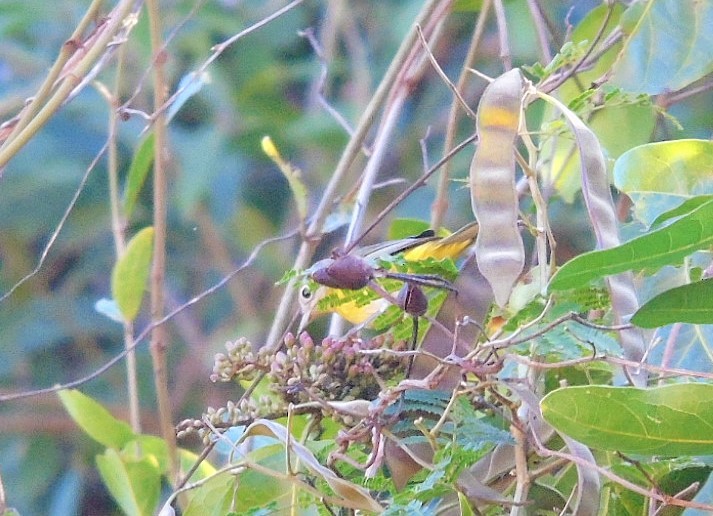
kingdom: Animalia
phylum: Chordata
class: Aves
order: Passeriformes
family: Parulidae
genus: Leiothlypis
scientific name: Leiothlypis ruficapilla
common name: Nashville warbler
